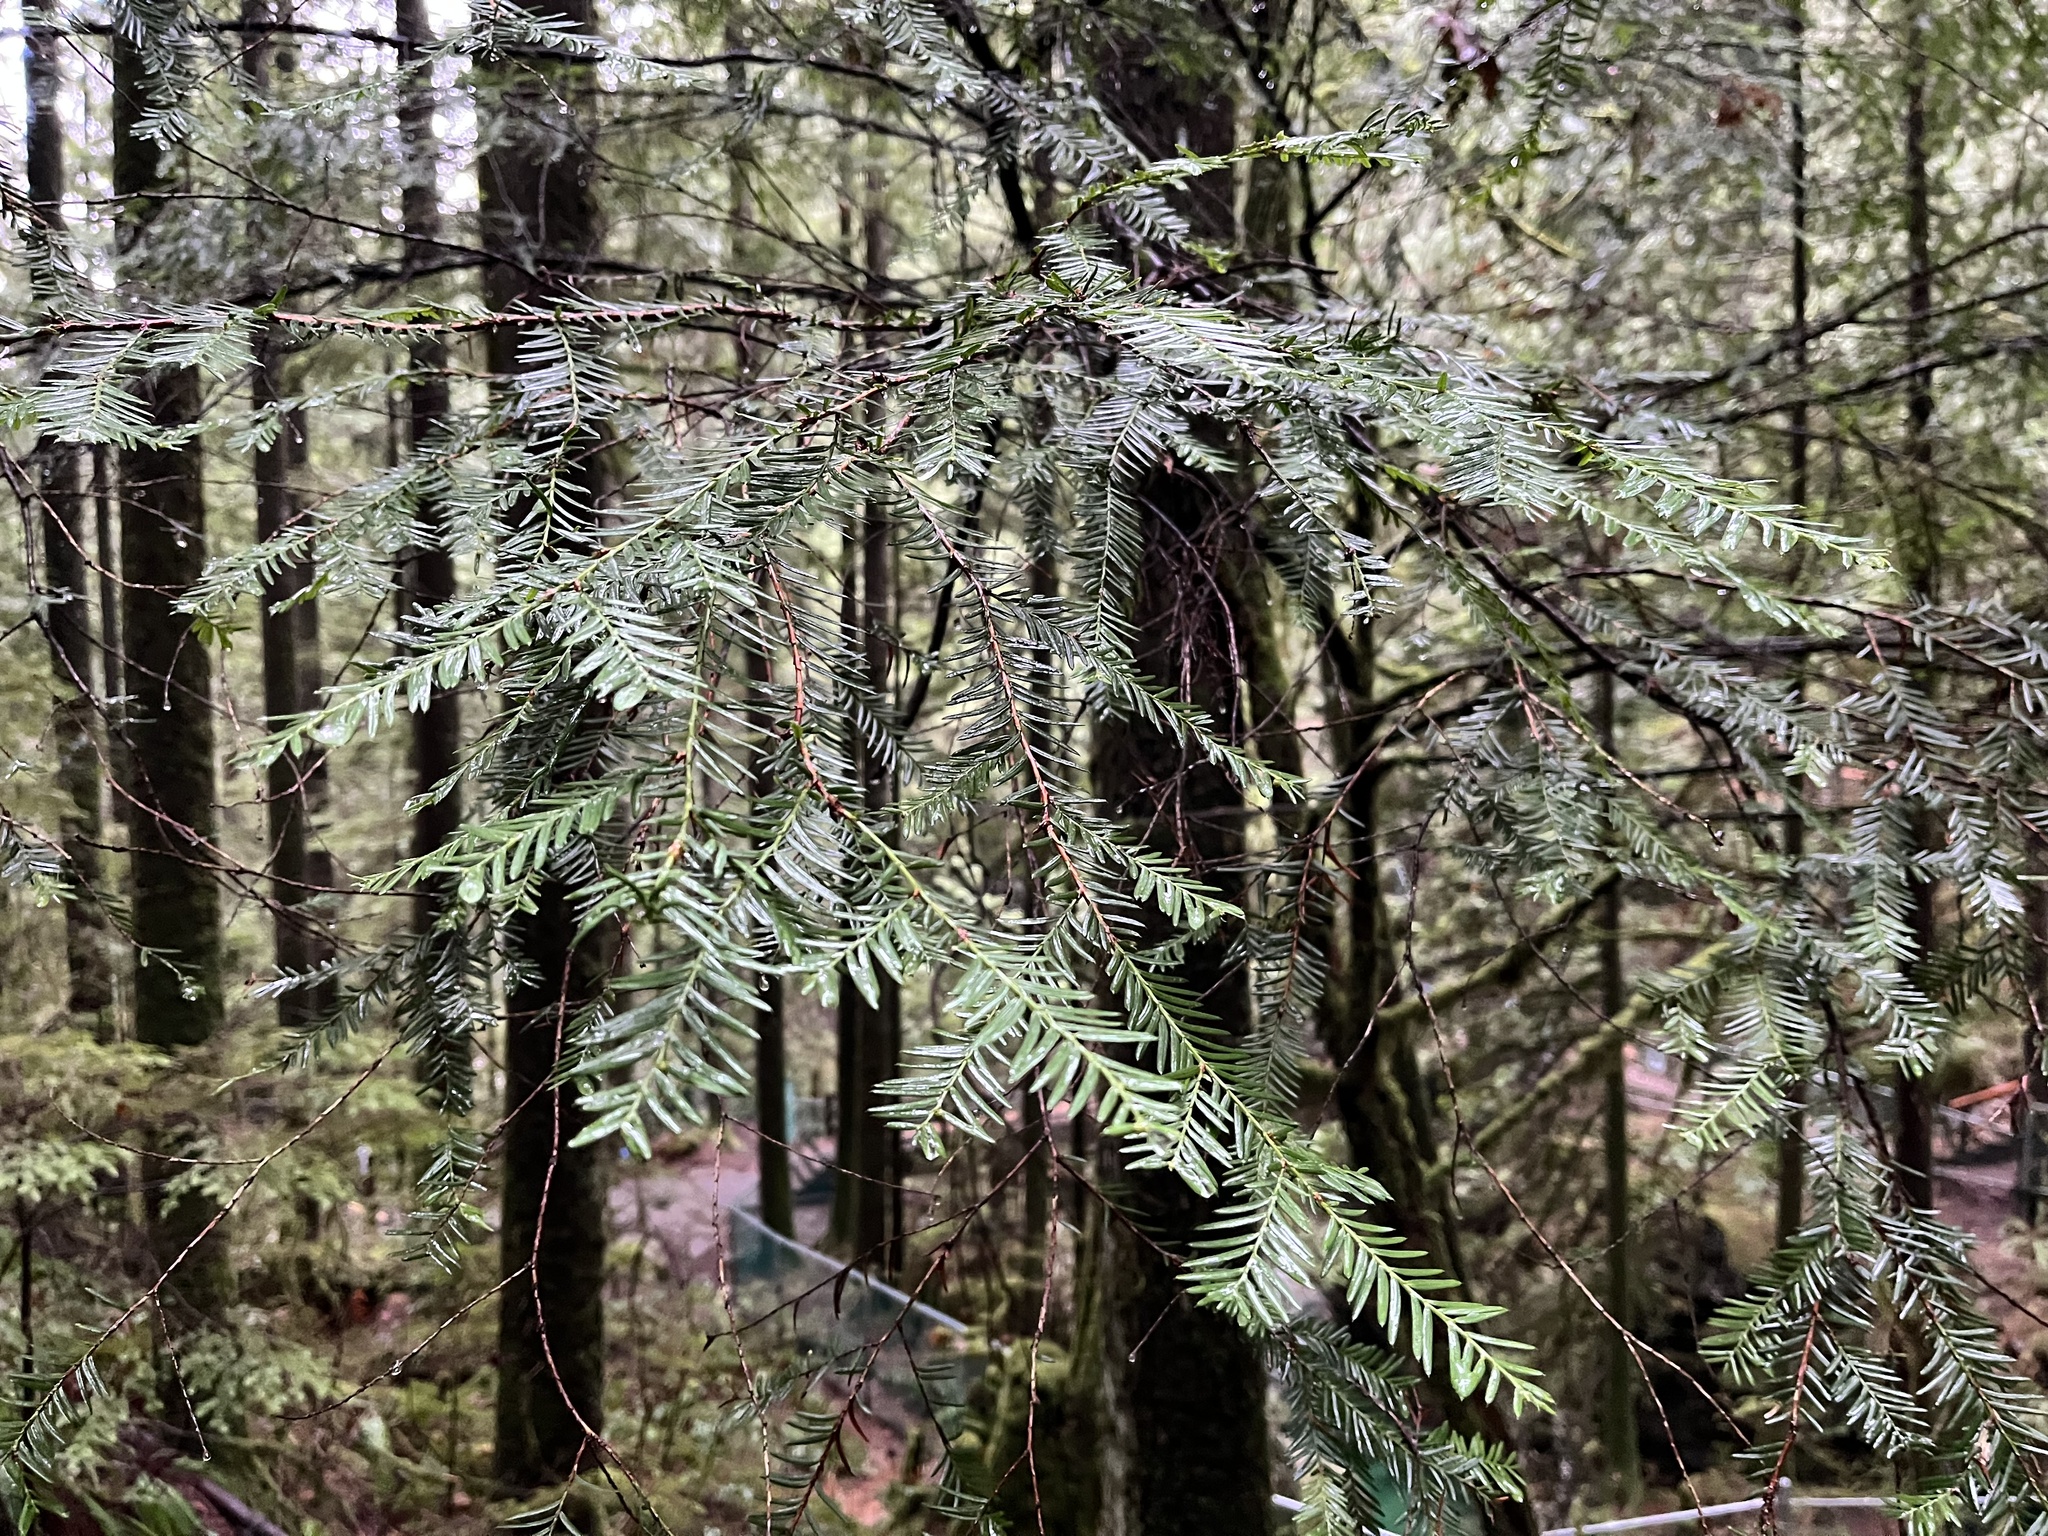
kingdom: Plantae
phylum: Tracheophyta
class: Pinopsida
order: Pinales
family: Taxaceae
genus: Taxus
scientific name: Taxus brevifolia
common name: Pacific yew
